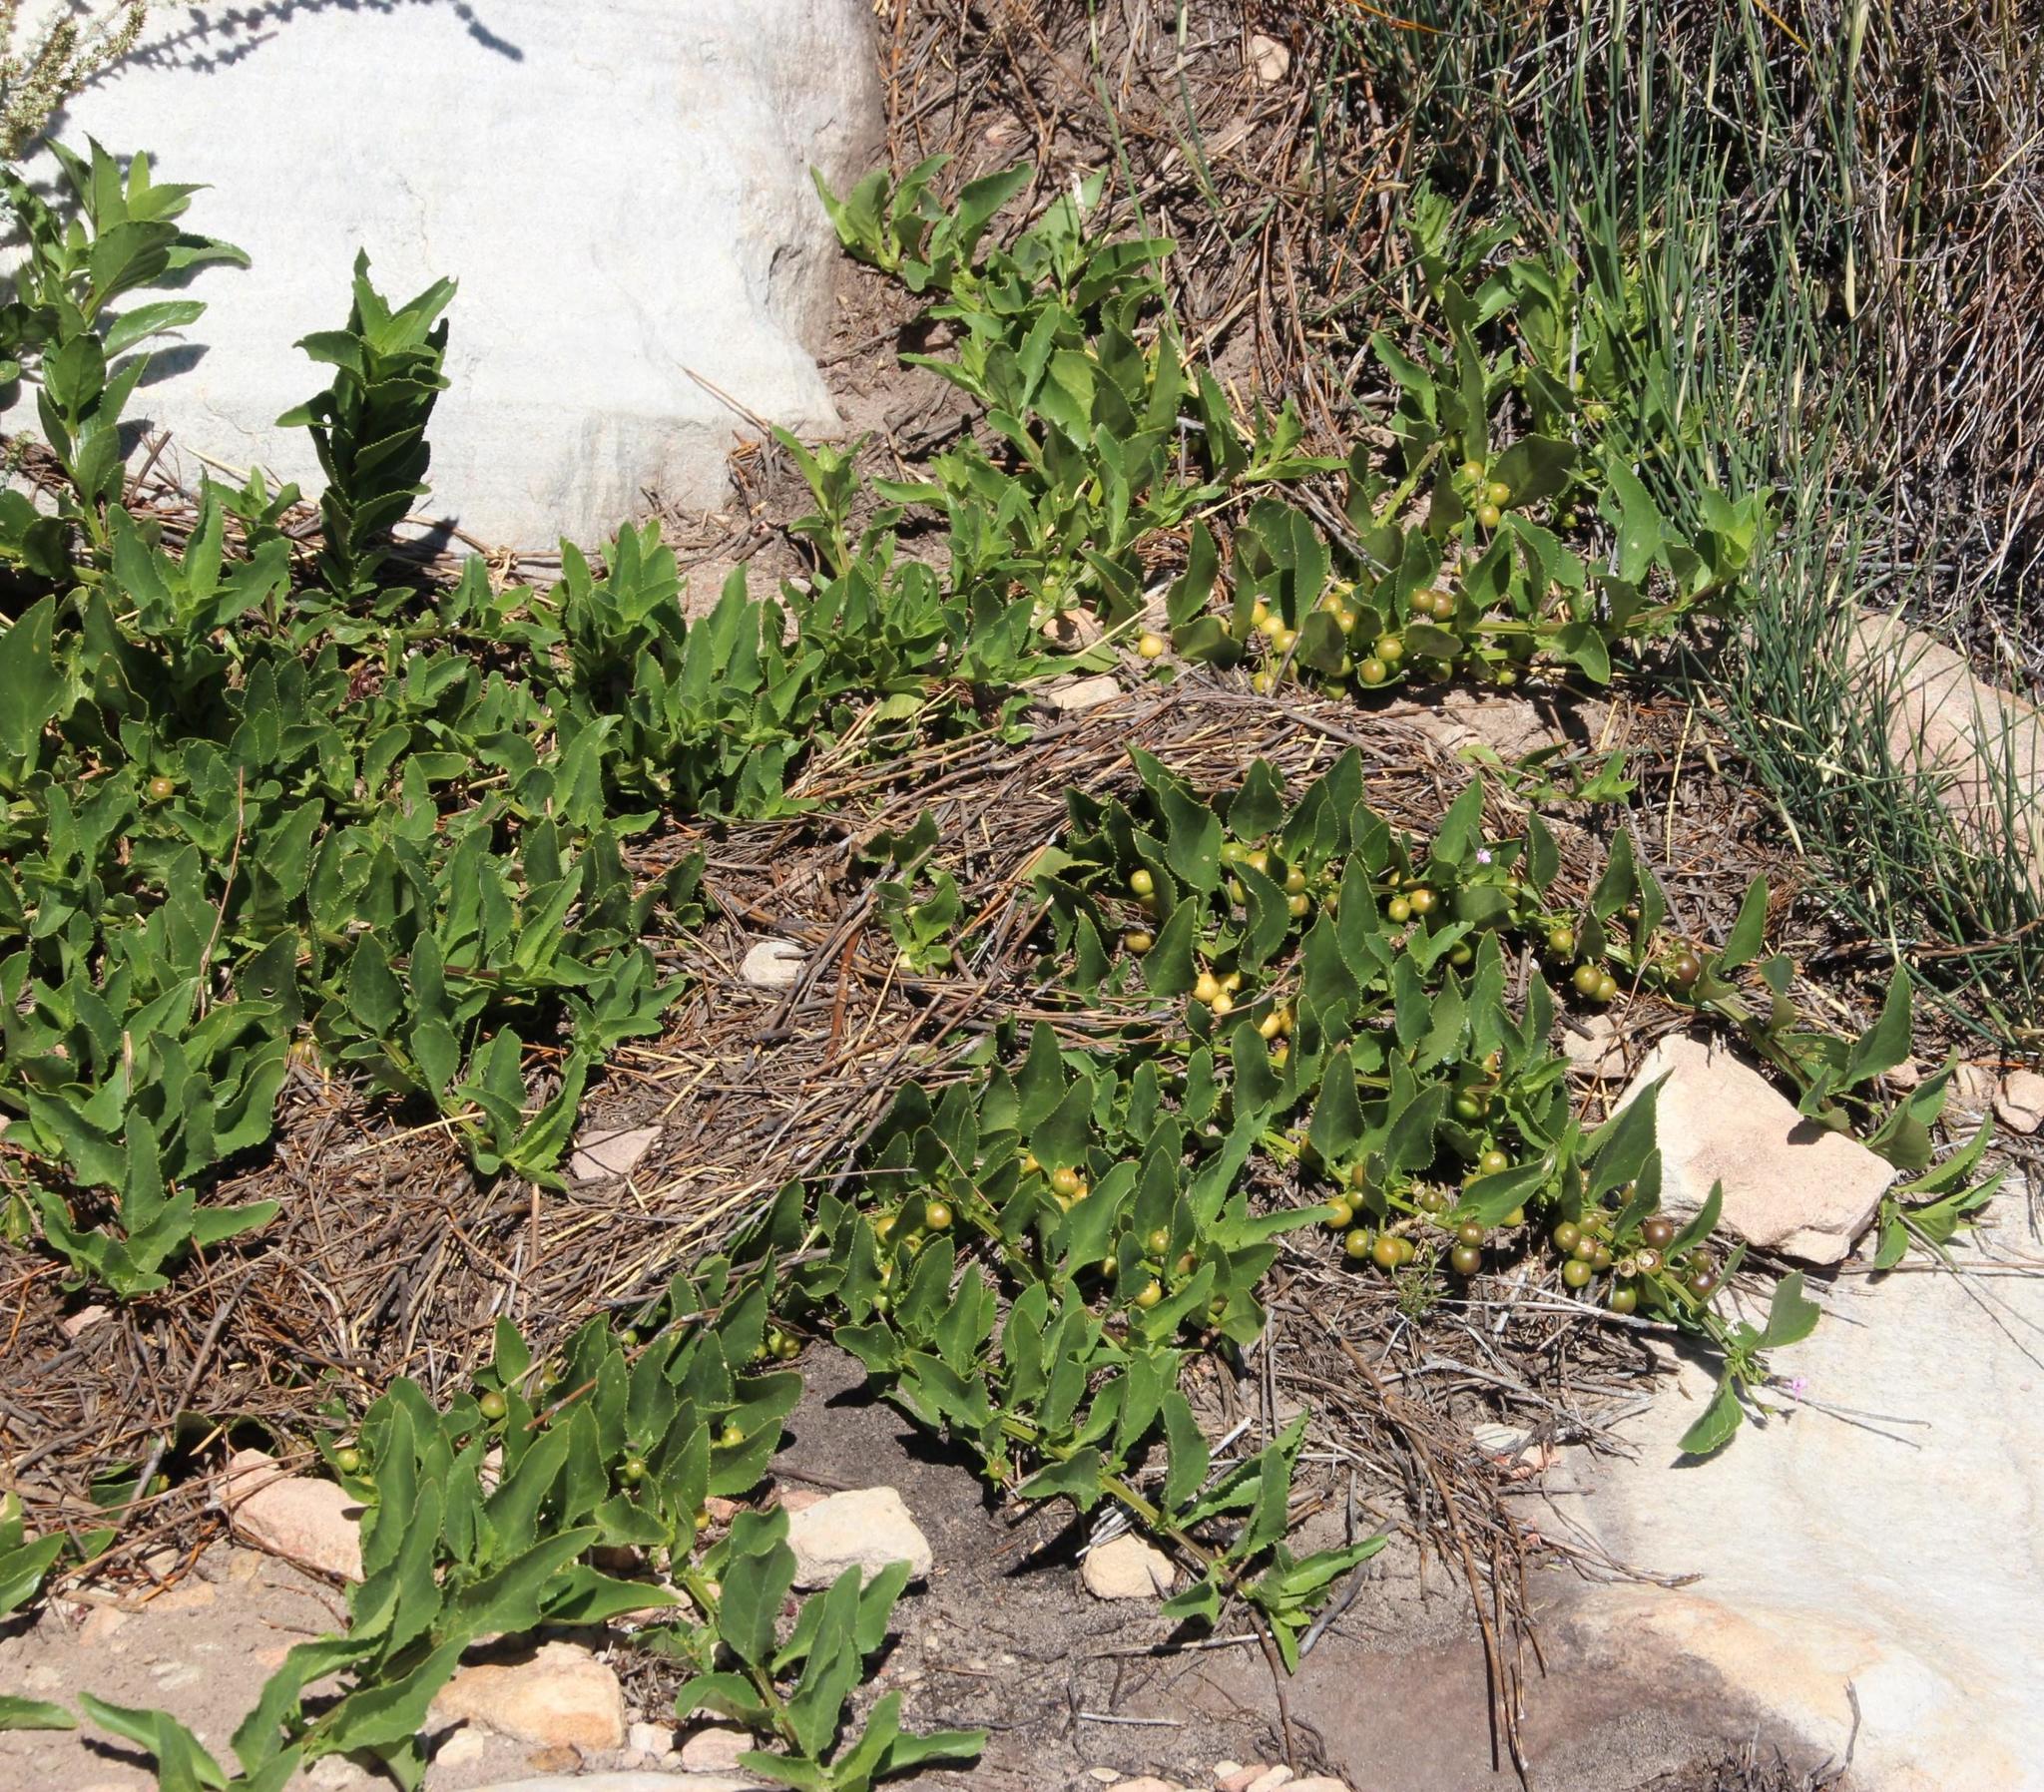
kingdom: Plantae
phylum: Tracheophyta
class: Magnoliopsida
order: Lamiales
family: Scrophulariaceae
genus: Teedia
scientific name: Teedia lucida
